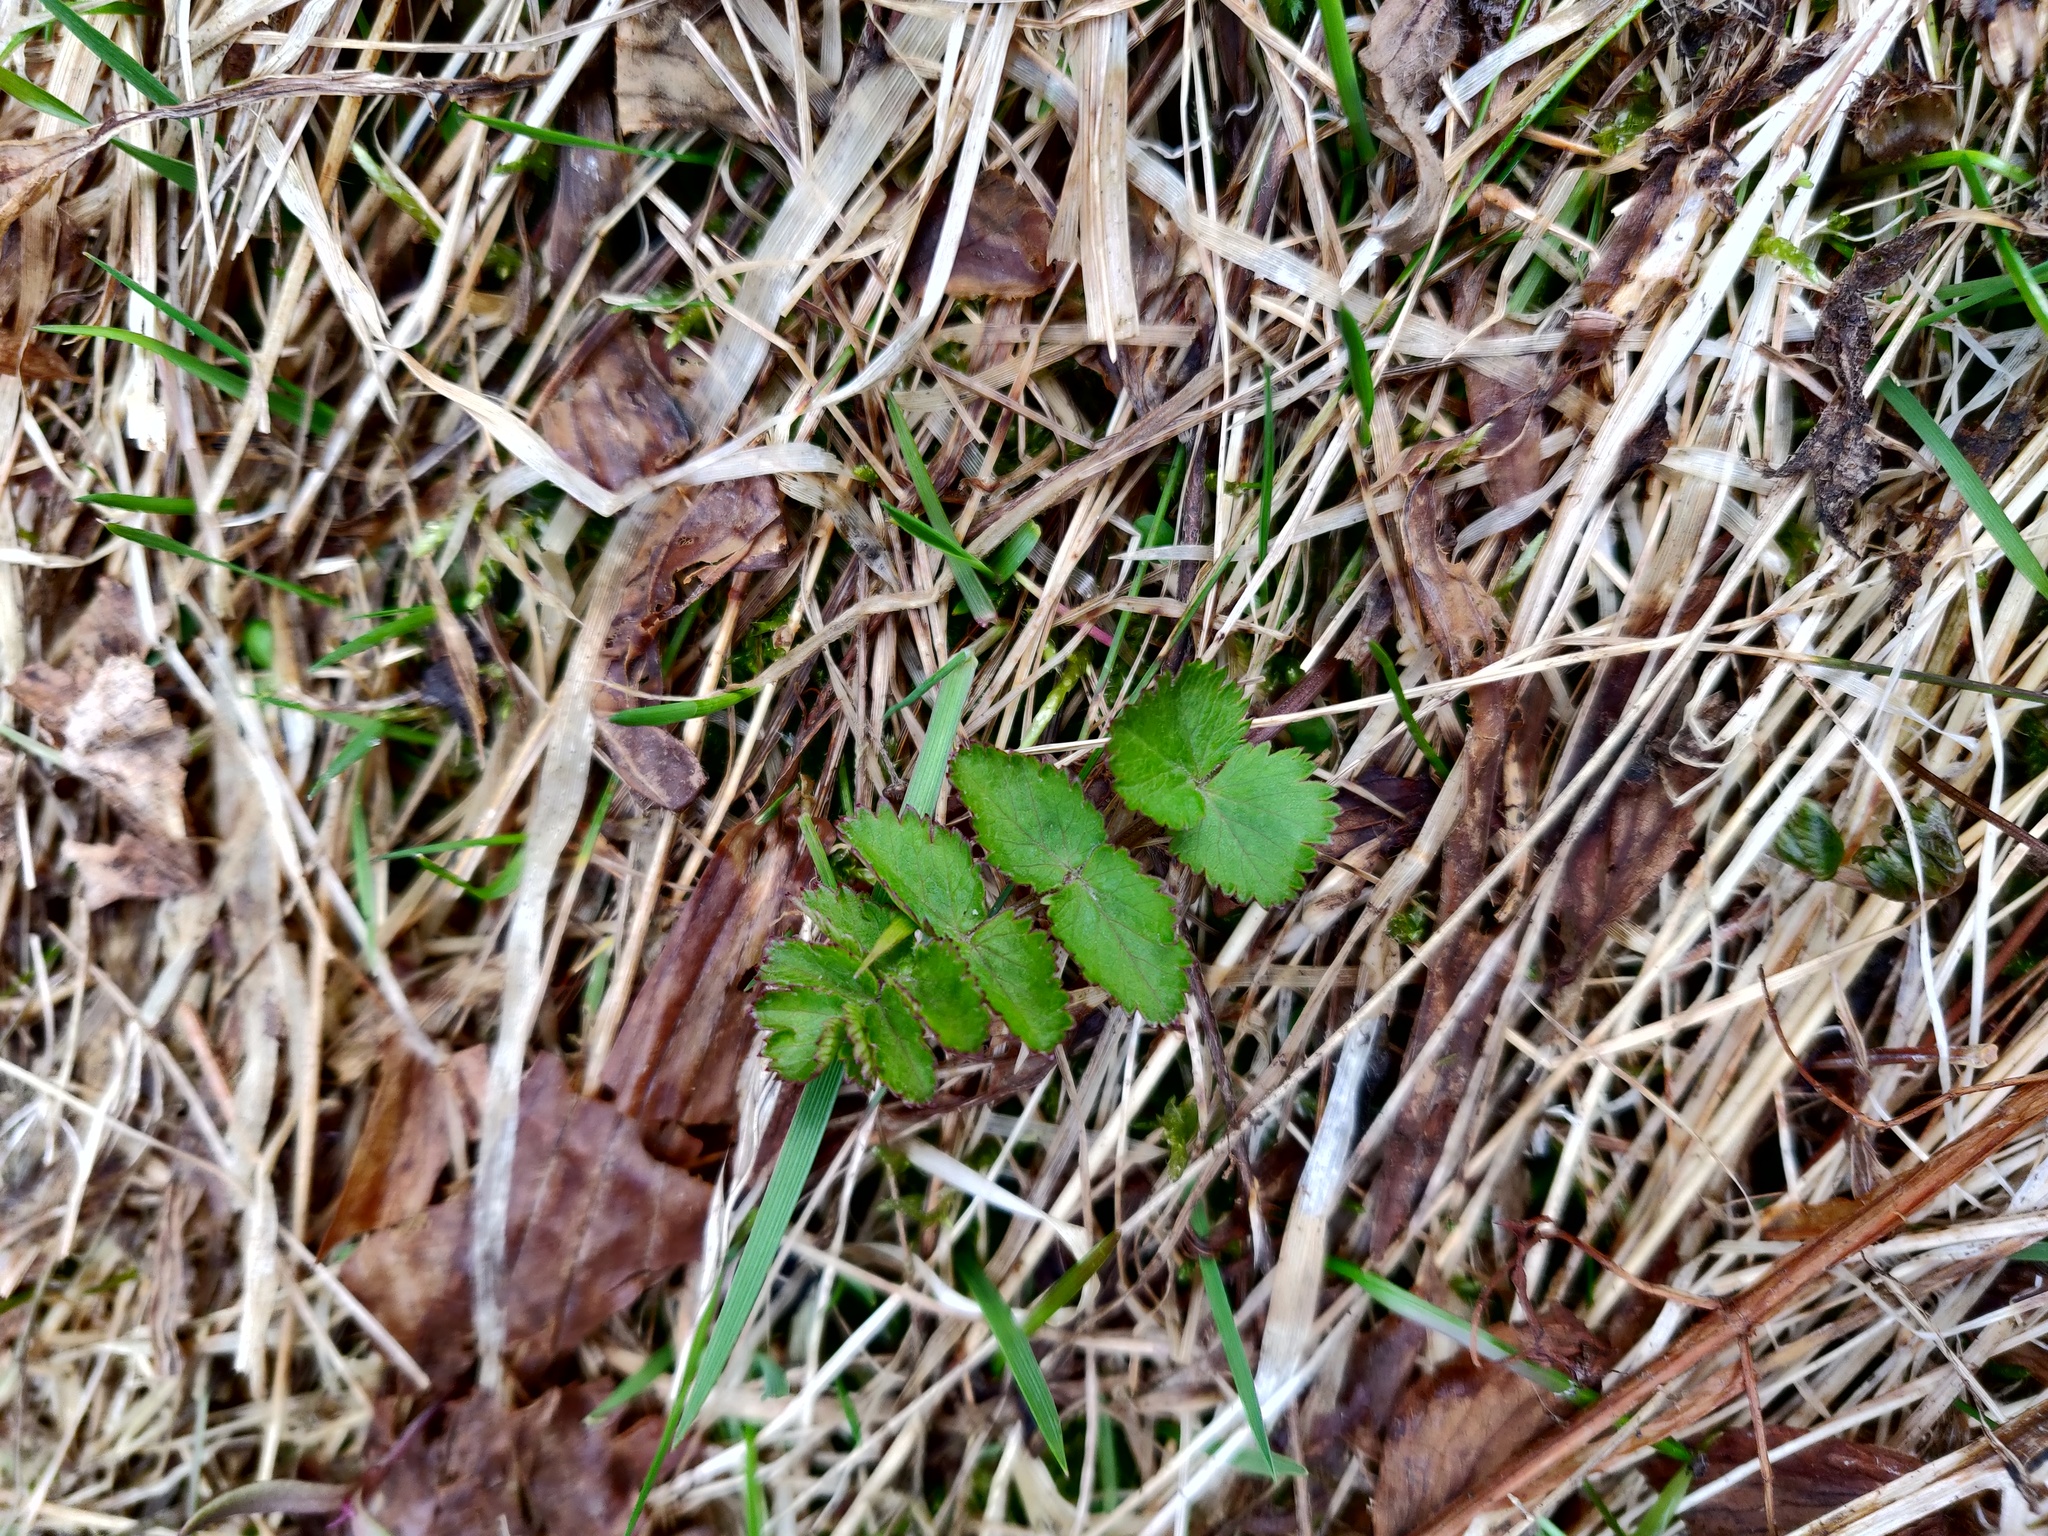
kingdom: Plantae
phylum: Tracheophyta
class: Magnoliopsida
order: Apiales
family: Apiaceae
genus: Pimpinella
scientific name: Pimpinella saxifraga
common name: Burnet-saxifrage
